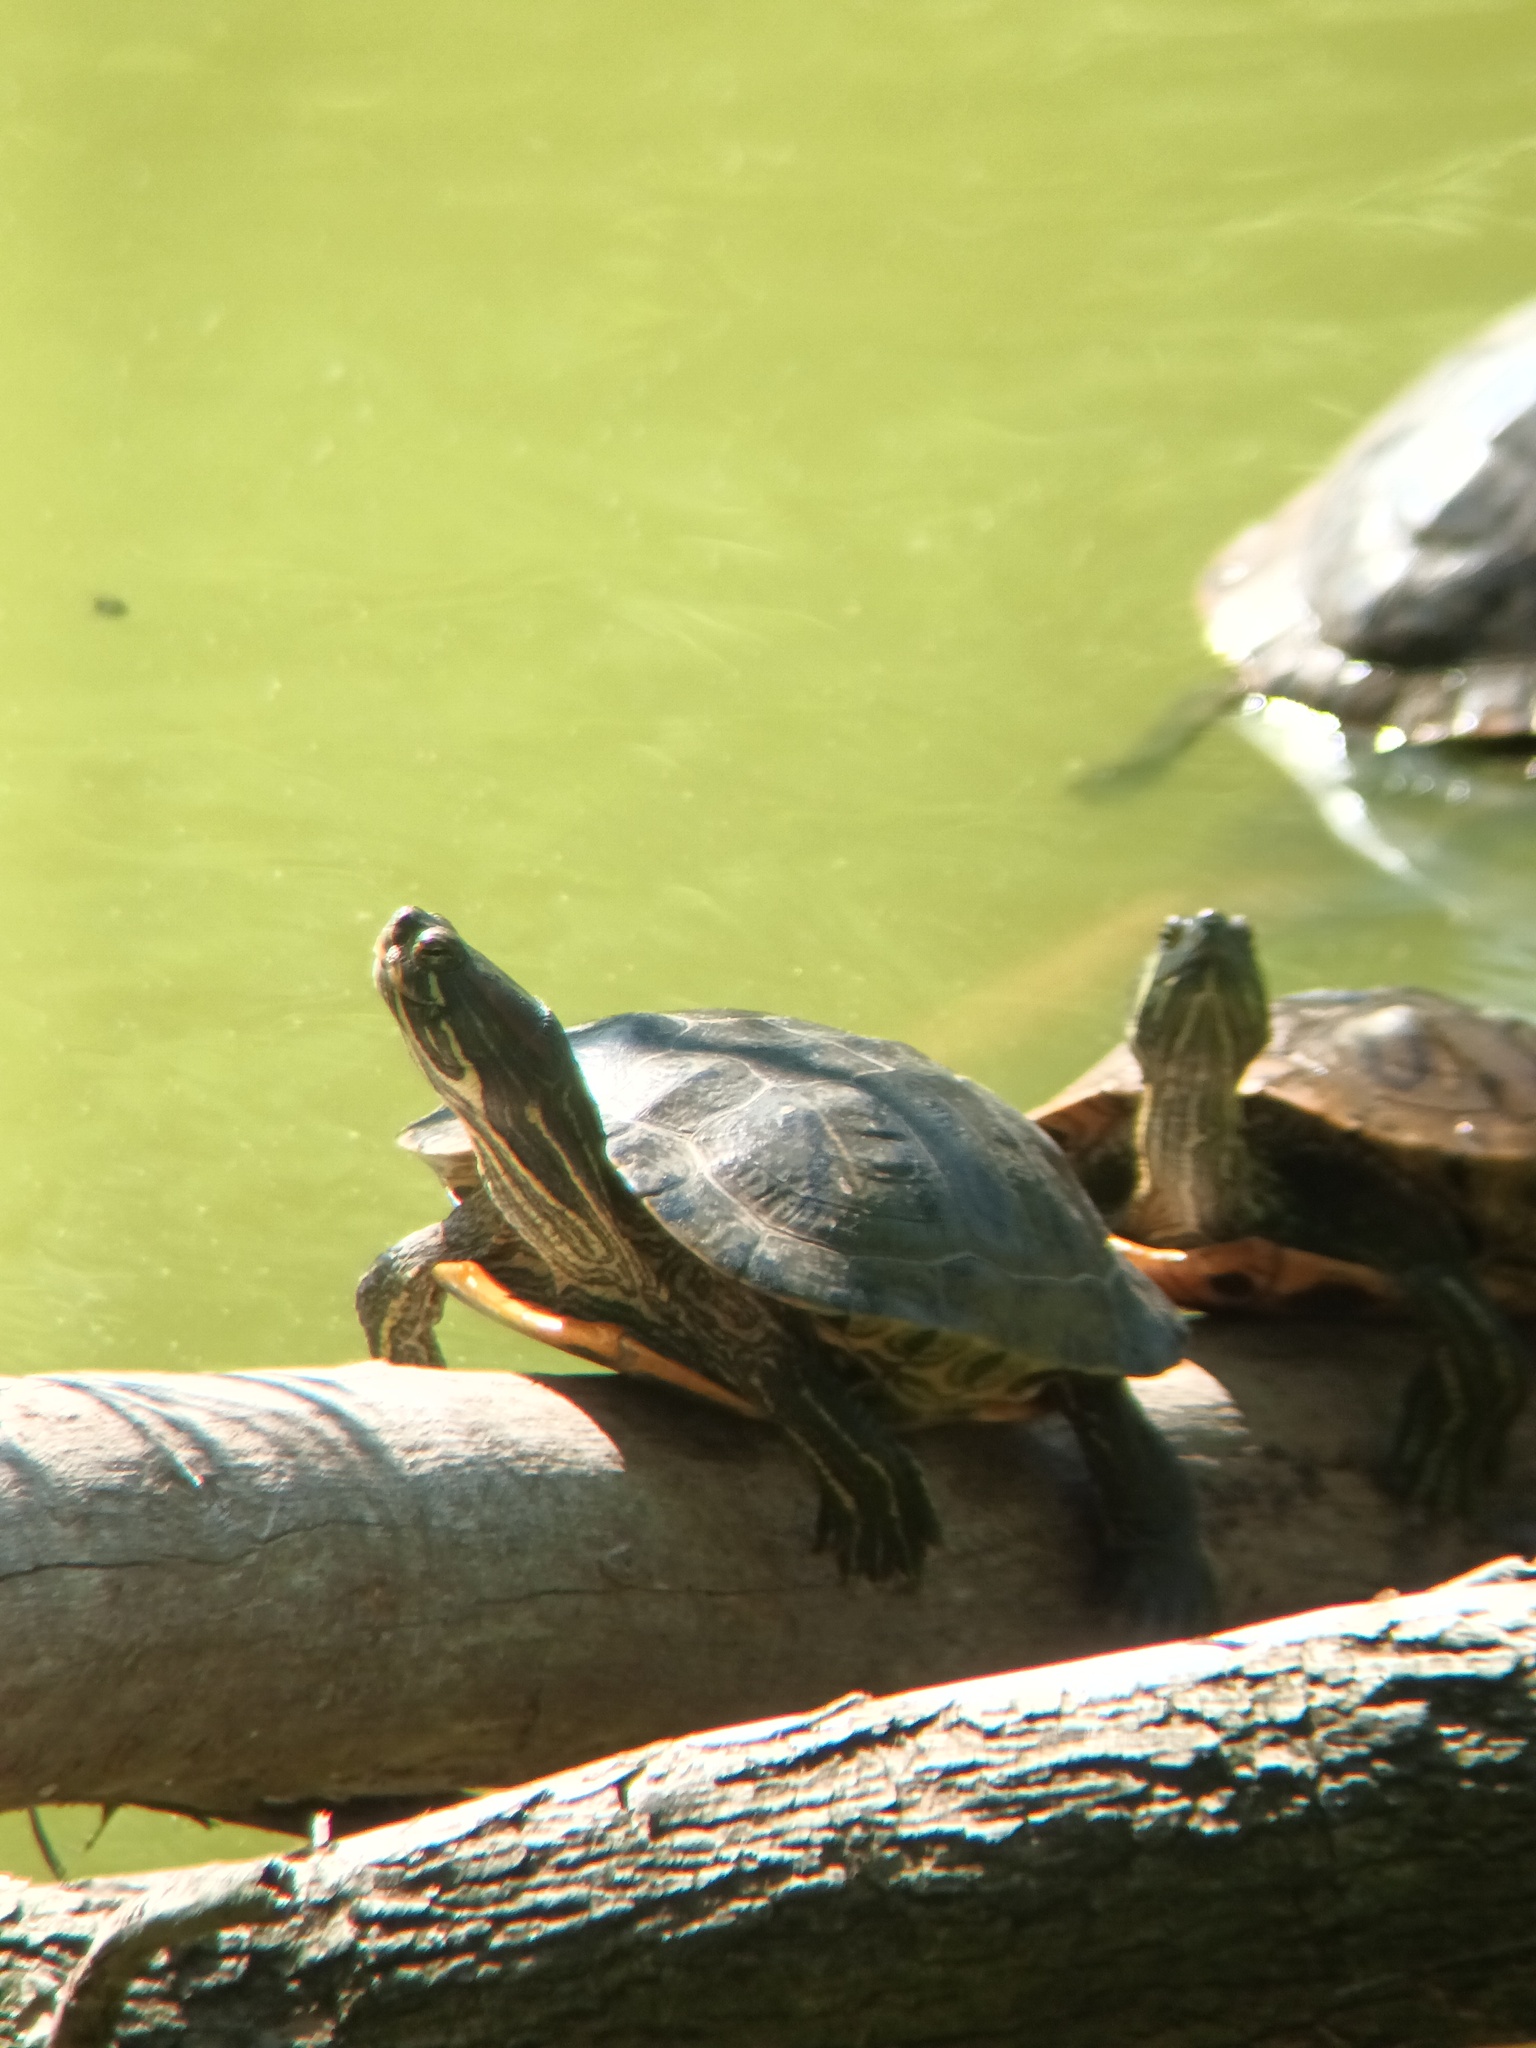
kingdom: Animalia
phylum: Chordata
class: Testudines
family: Emydidae
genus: Trachemys
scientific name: Trachemys scripta
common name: Slider
